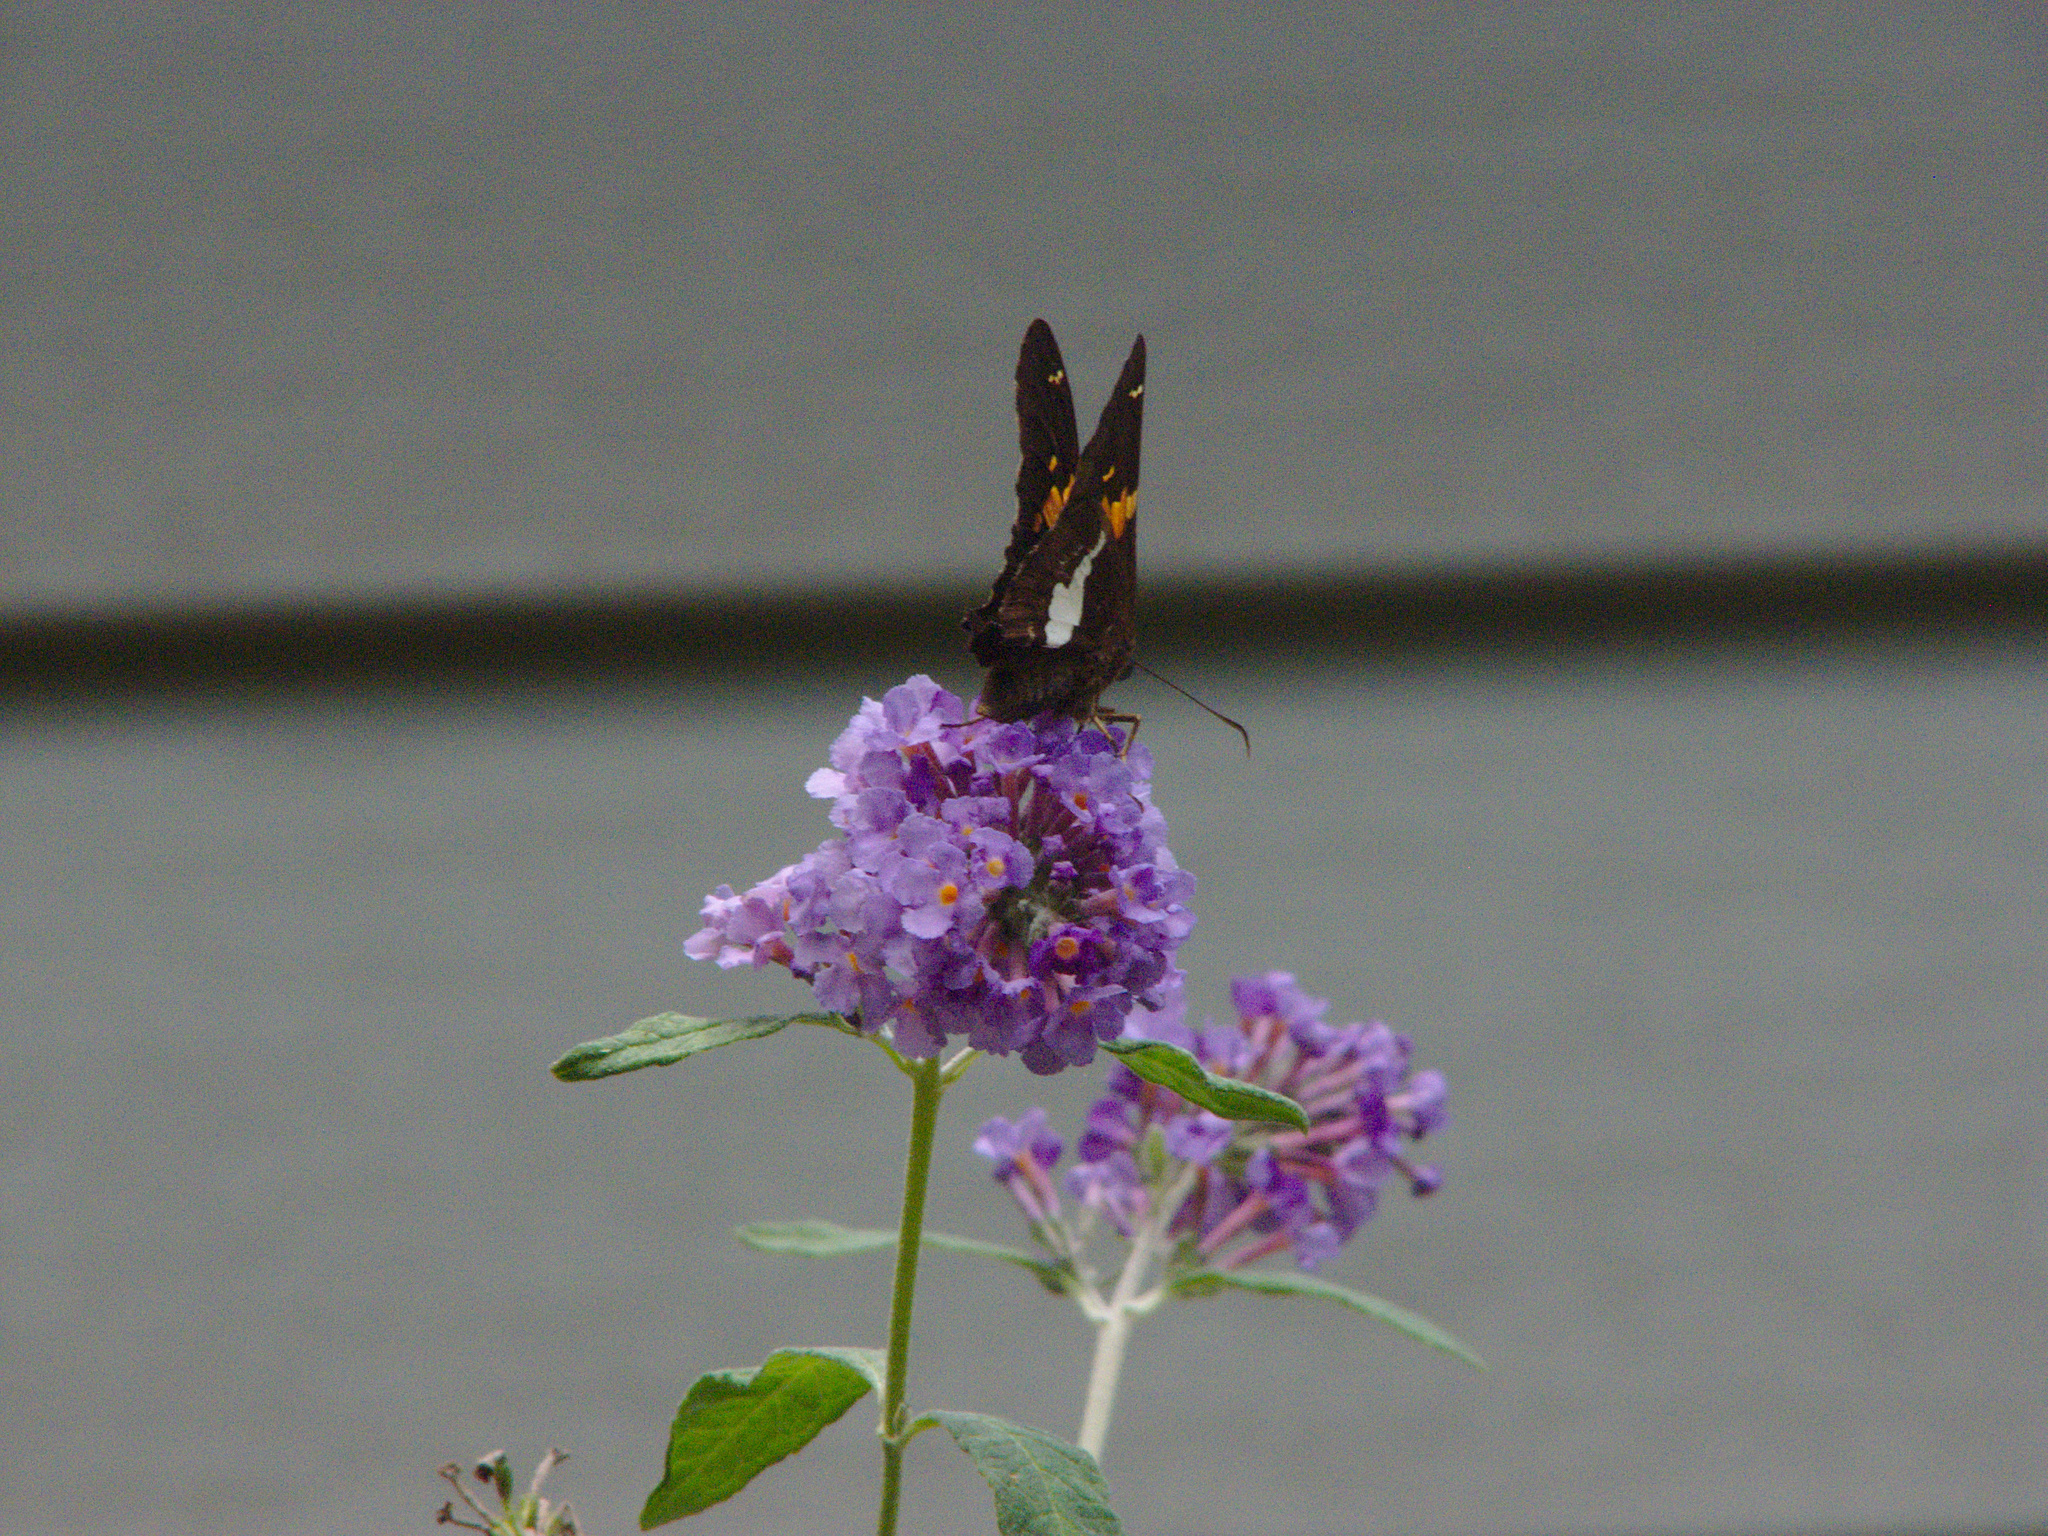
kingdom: Animalia
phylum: Arthropoda
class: Insecta
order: Lepidoptera
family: Hesperiidae
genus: Epargyreus
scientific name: Epargyreus clarus
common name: Silver-spotted skipper
